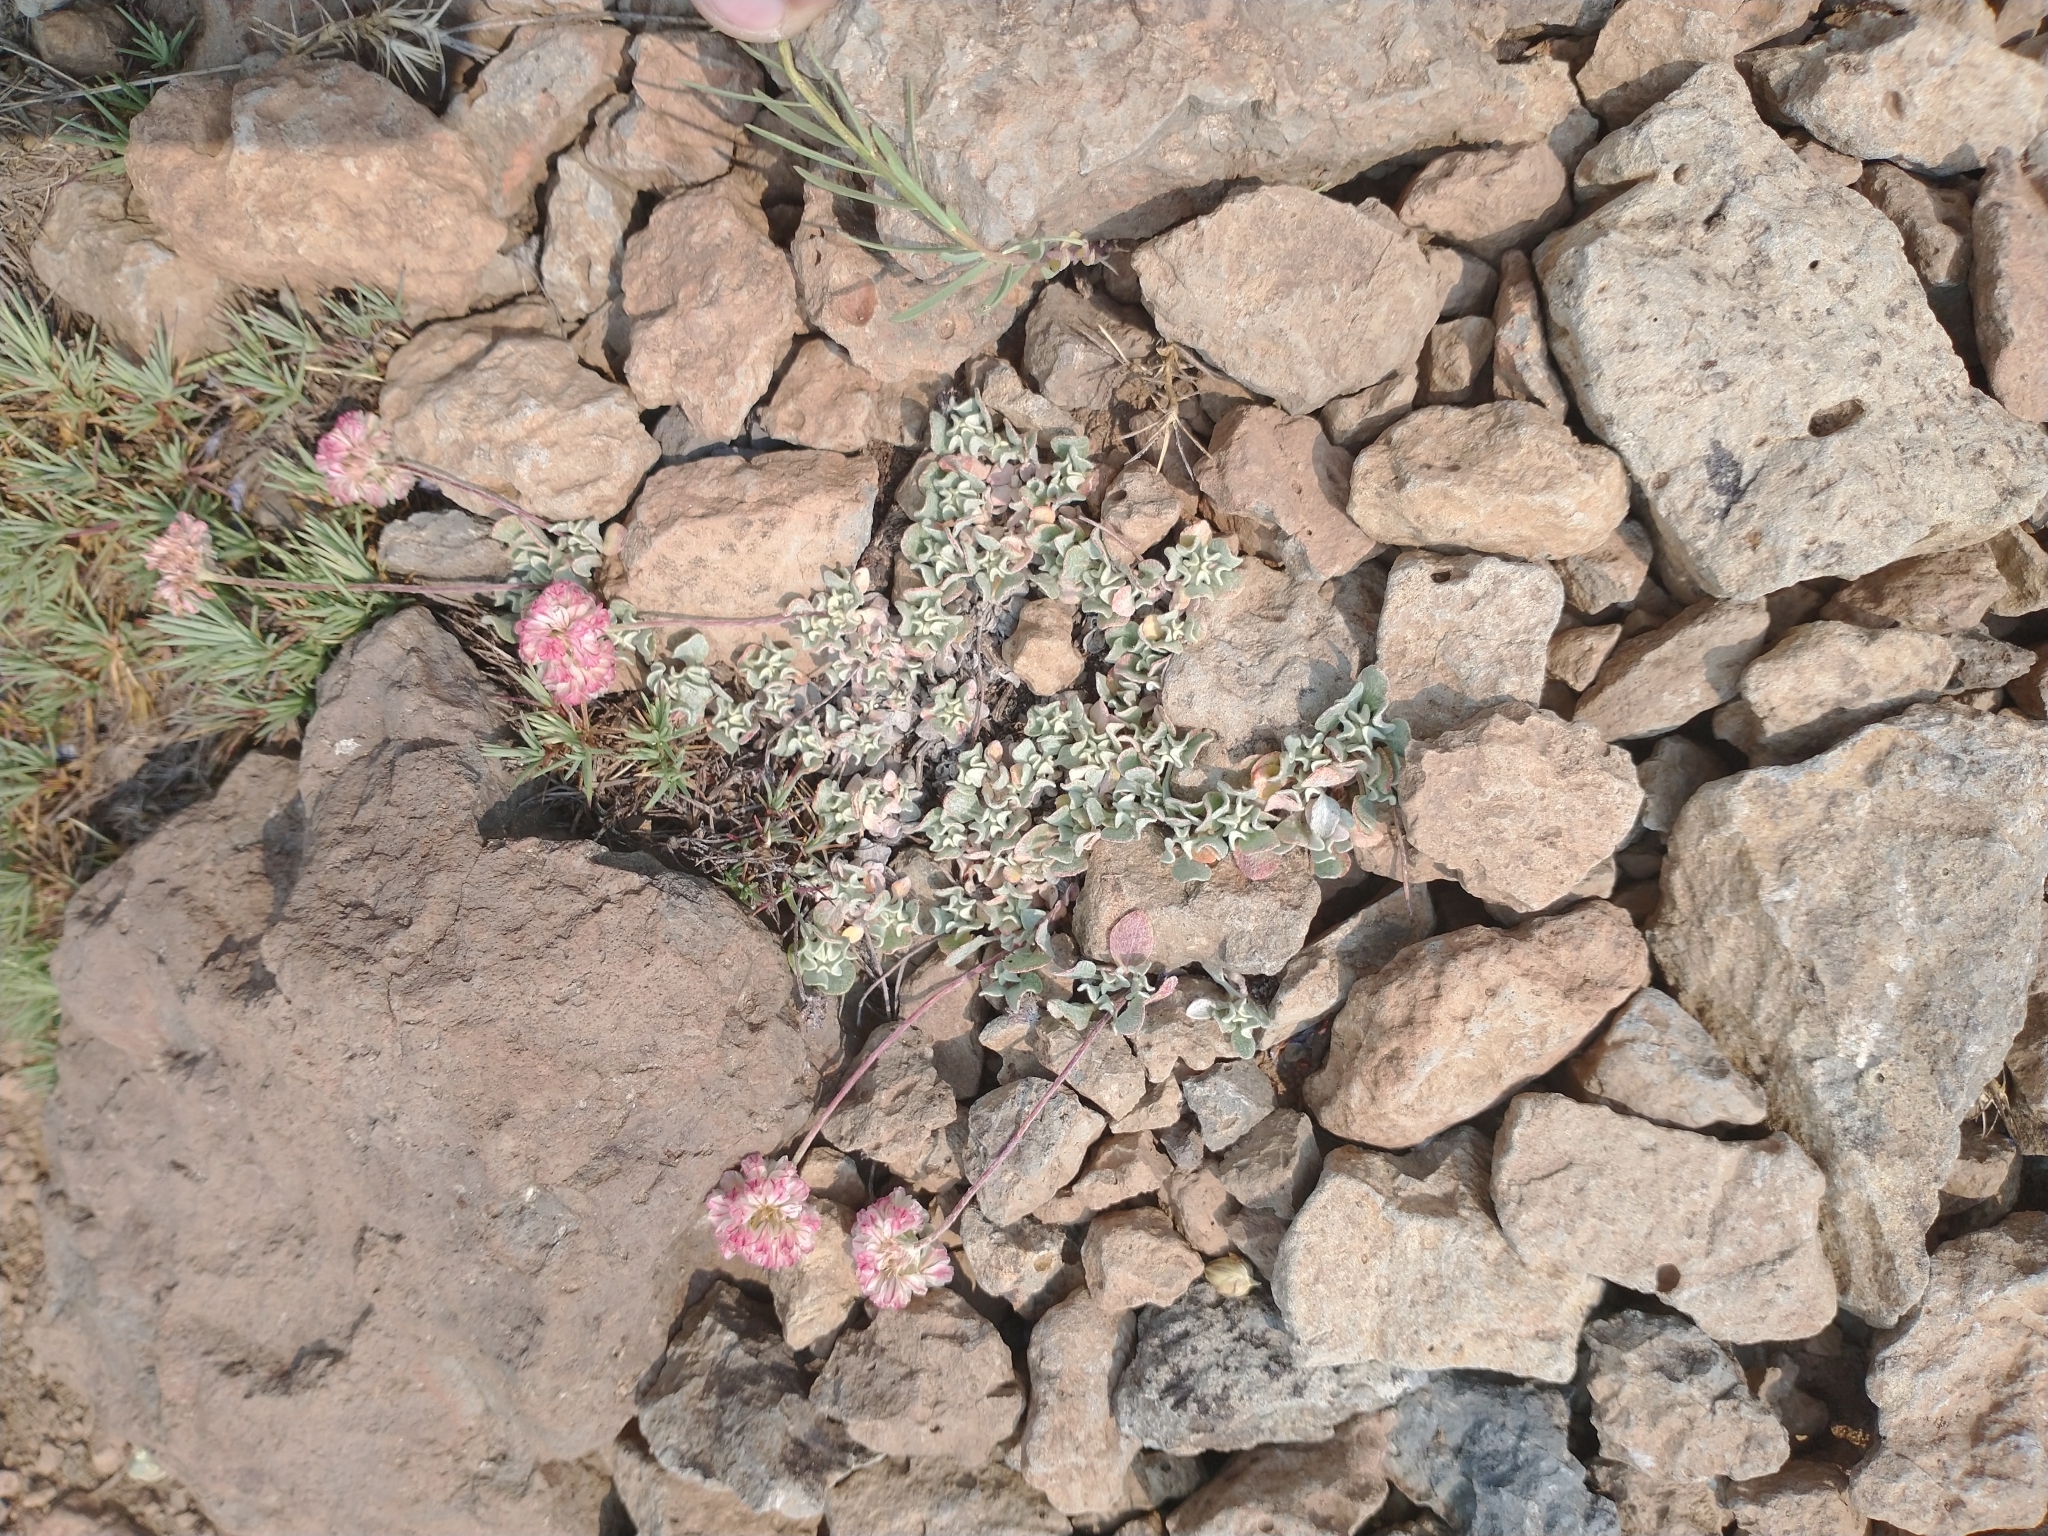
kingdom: Plantae
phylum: Tracheophyta
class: Magnoliopsida
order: Caryophyllales
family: Polygonaceae
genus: Eriogonum
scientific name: Eriogonum ovalifolium
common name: Cushion buckwheat
